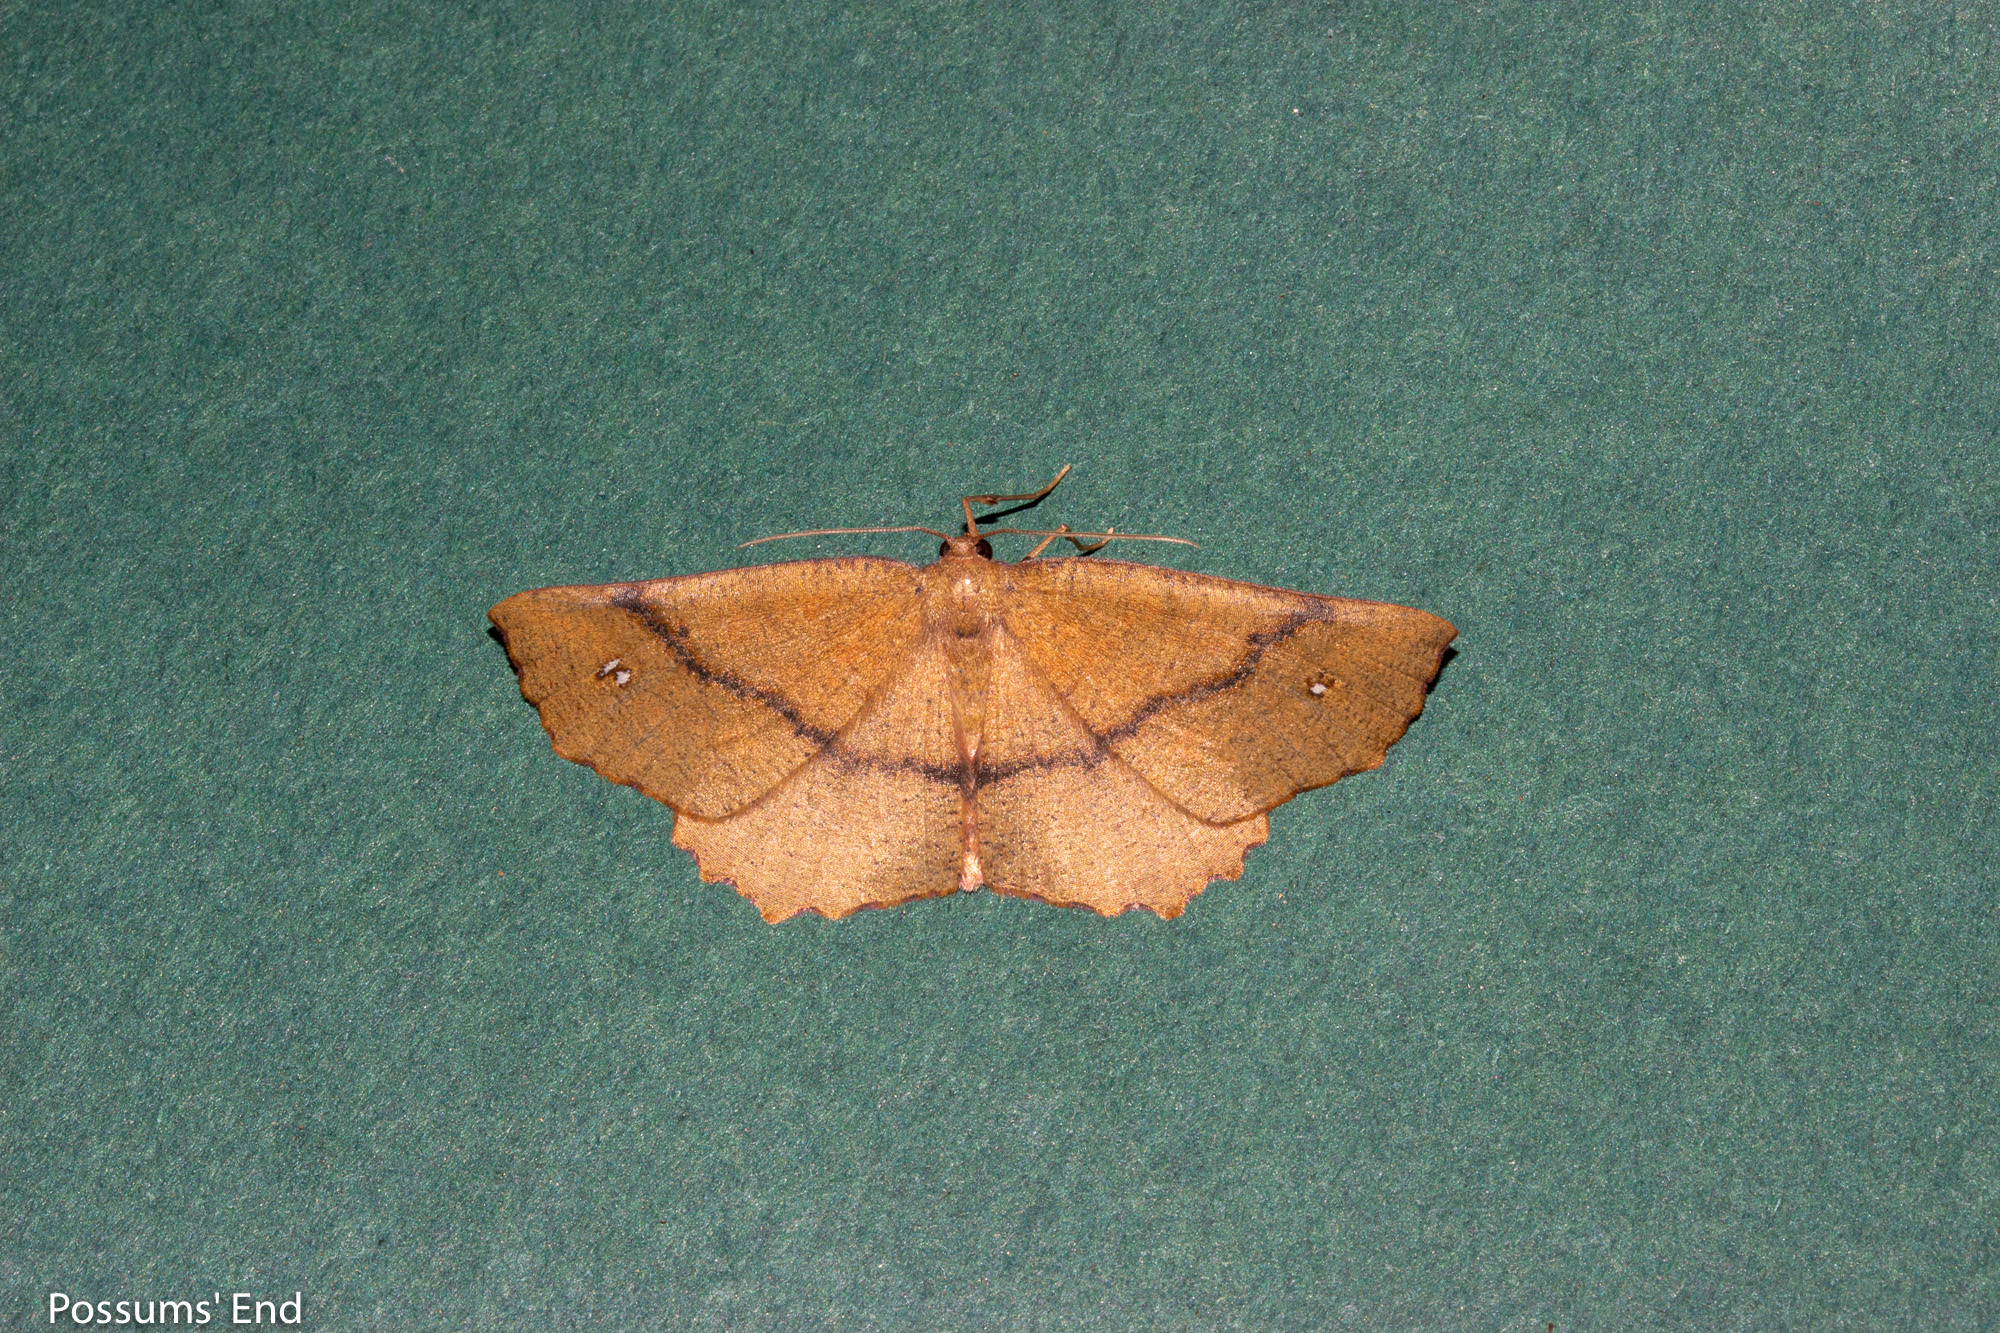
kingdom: Animalia
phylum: Arthropoda
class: Insecta
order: Lepidoptera
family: Geometridae
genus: Xyridacma
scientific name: Xyridacma ustaria
